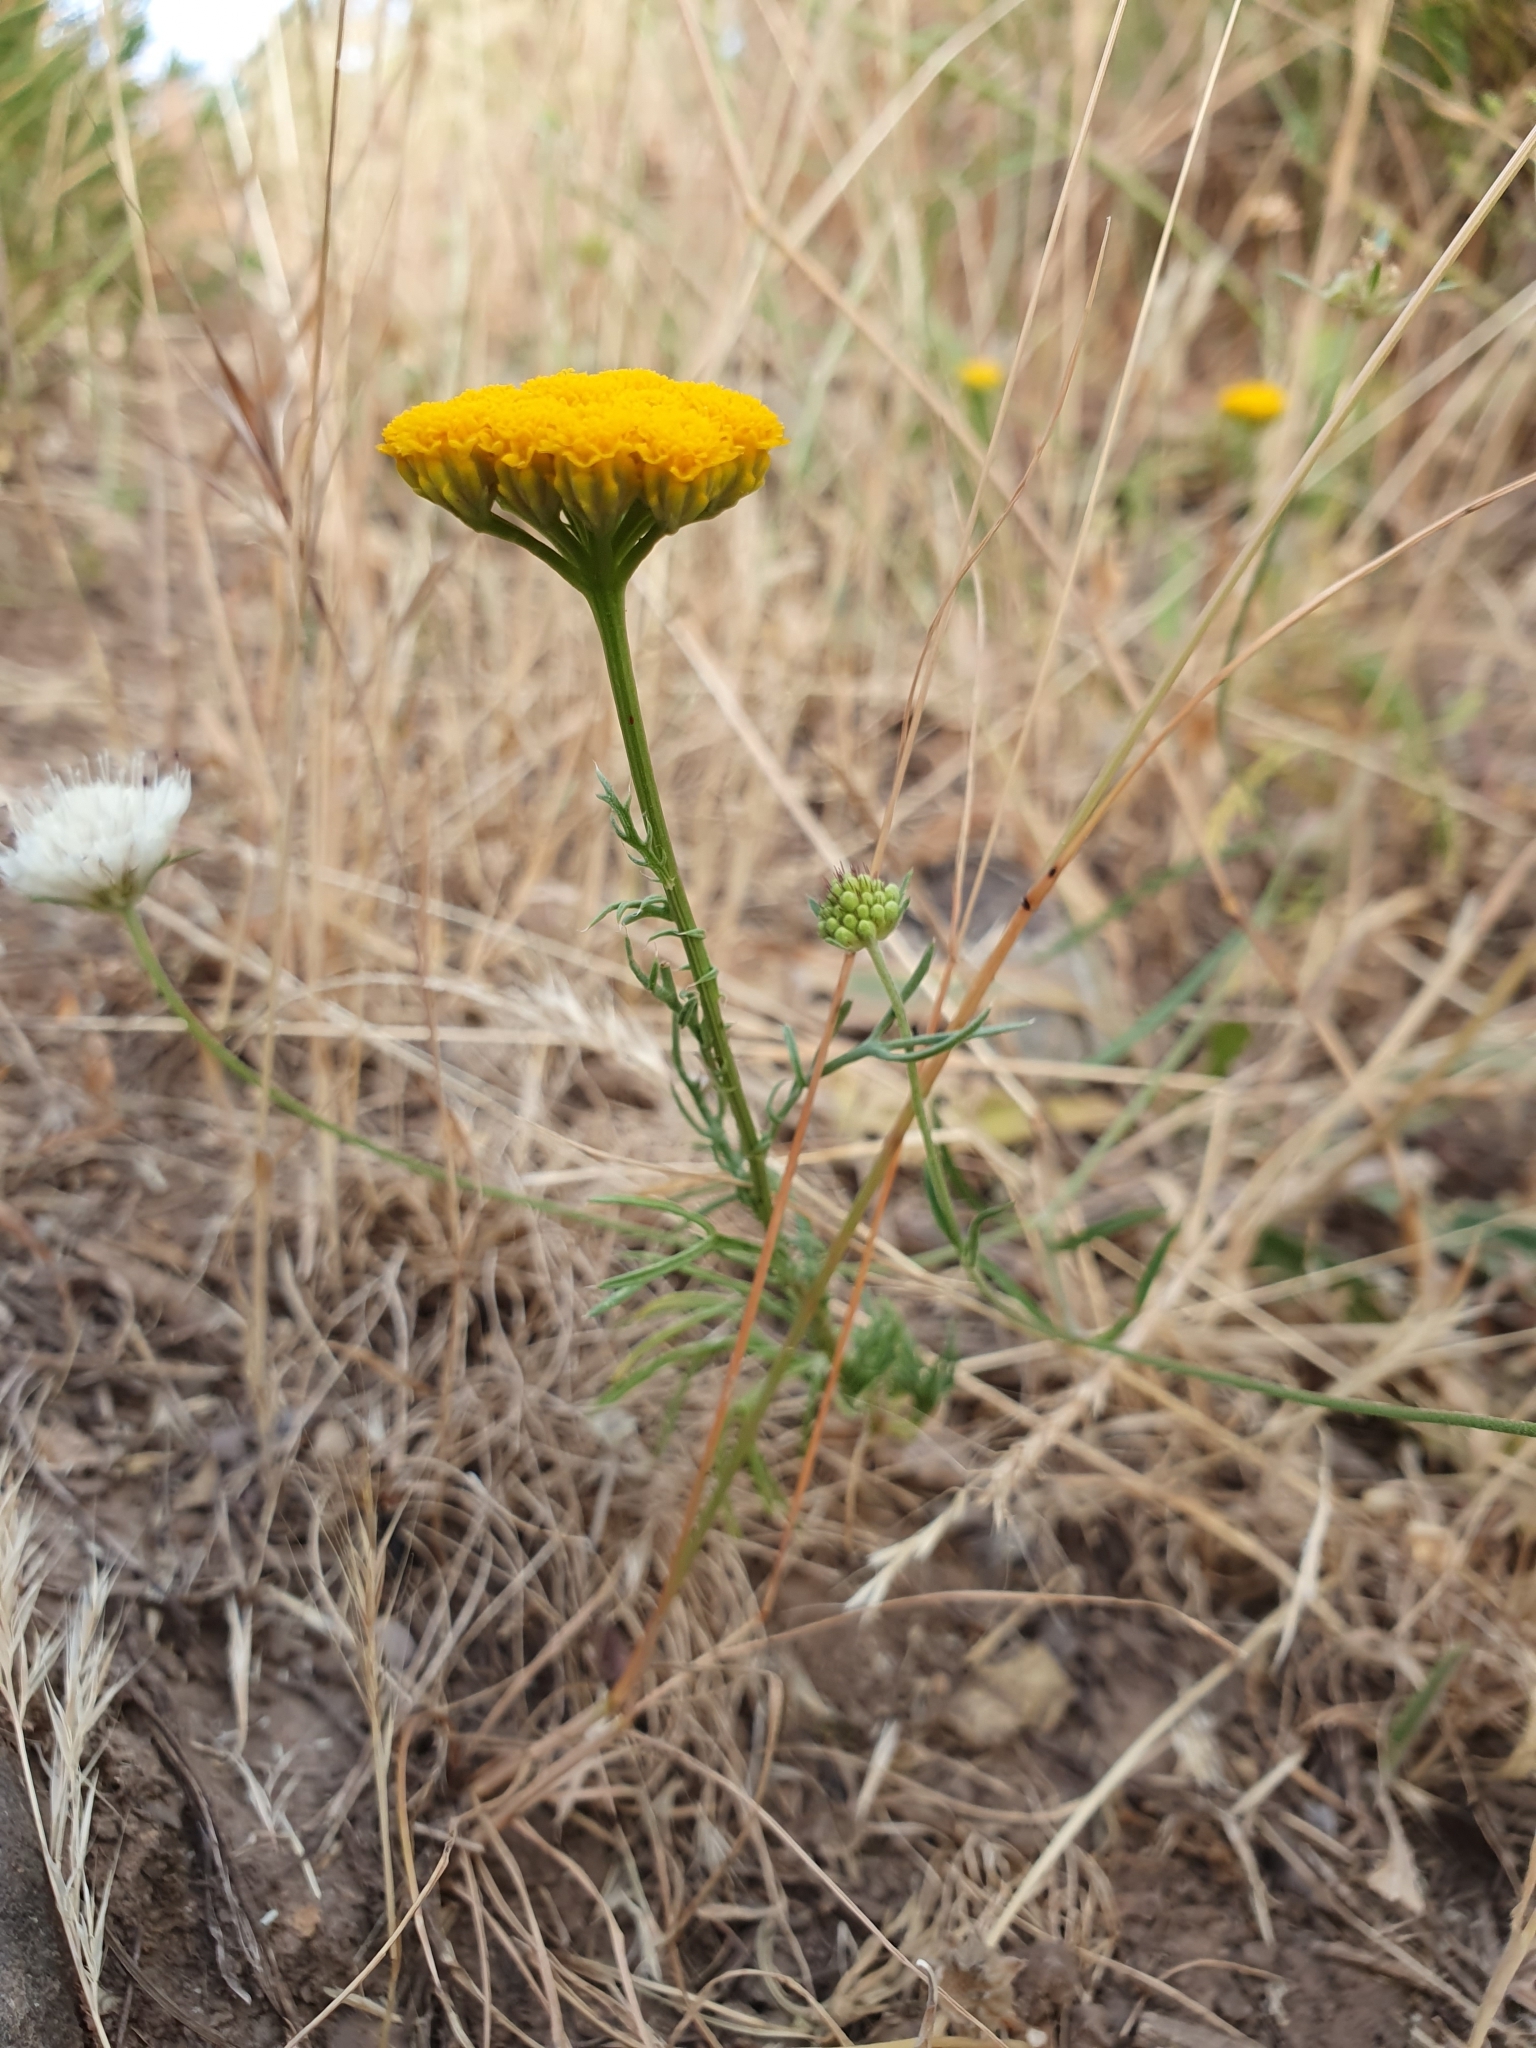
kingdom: Plantae
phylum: Tracheophyta
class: Magnoliopsida
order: Asterales
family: Asteraceae
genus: Lonas
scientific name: Lonas annua
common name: African daisy
